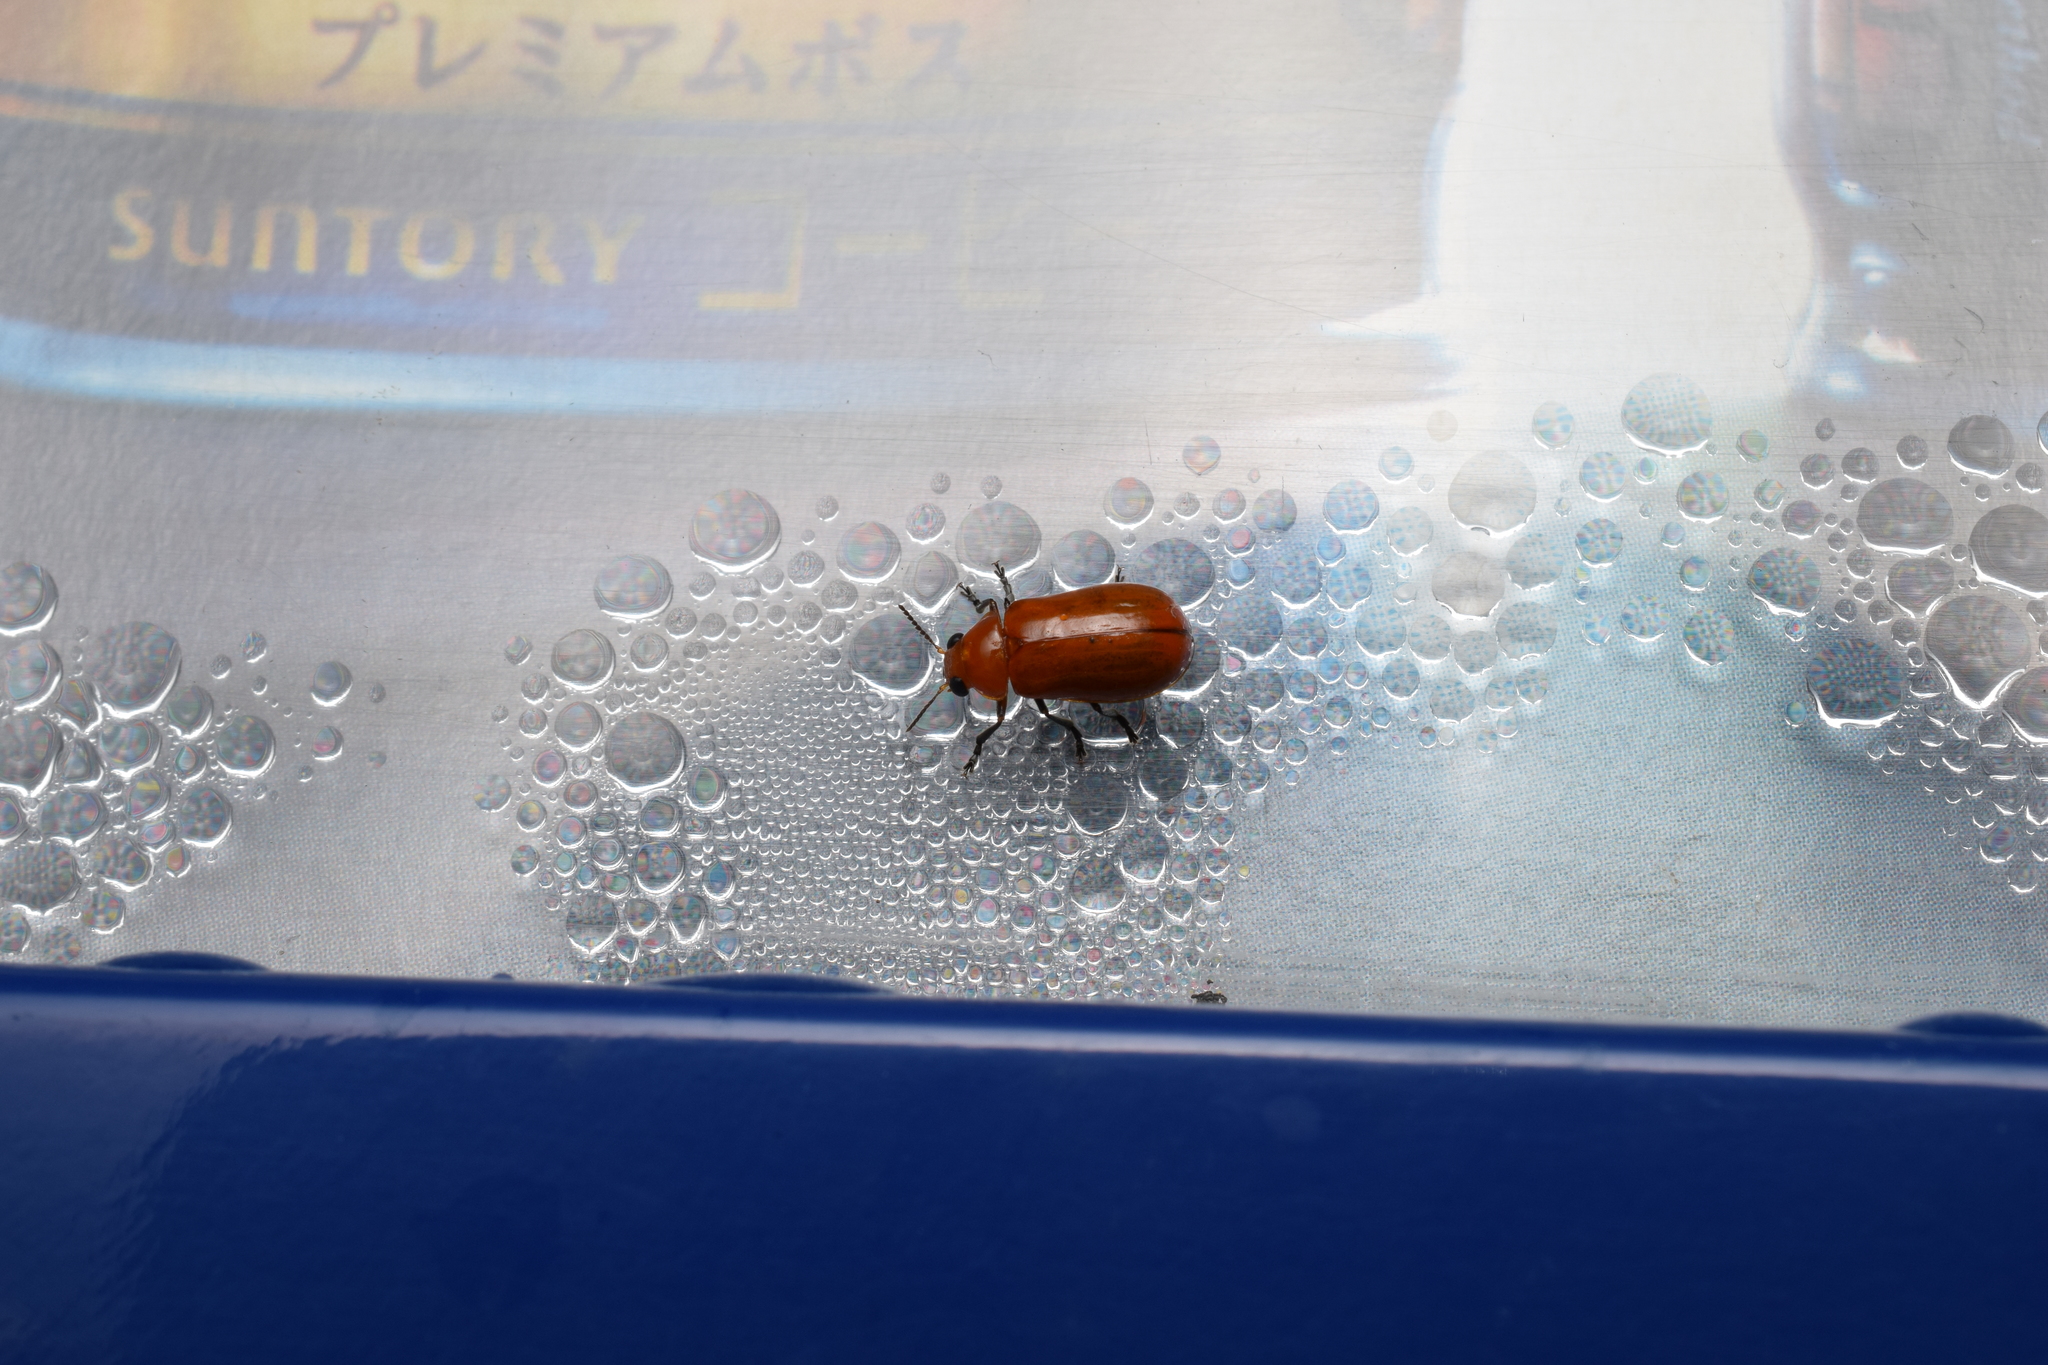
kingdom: Animalia
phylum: Arthropoda
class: Insecta
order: Coleoptera
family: Chrysomelidae
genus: Smaragdina
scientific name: Smaragdina
